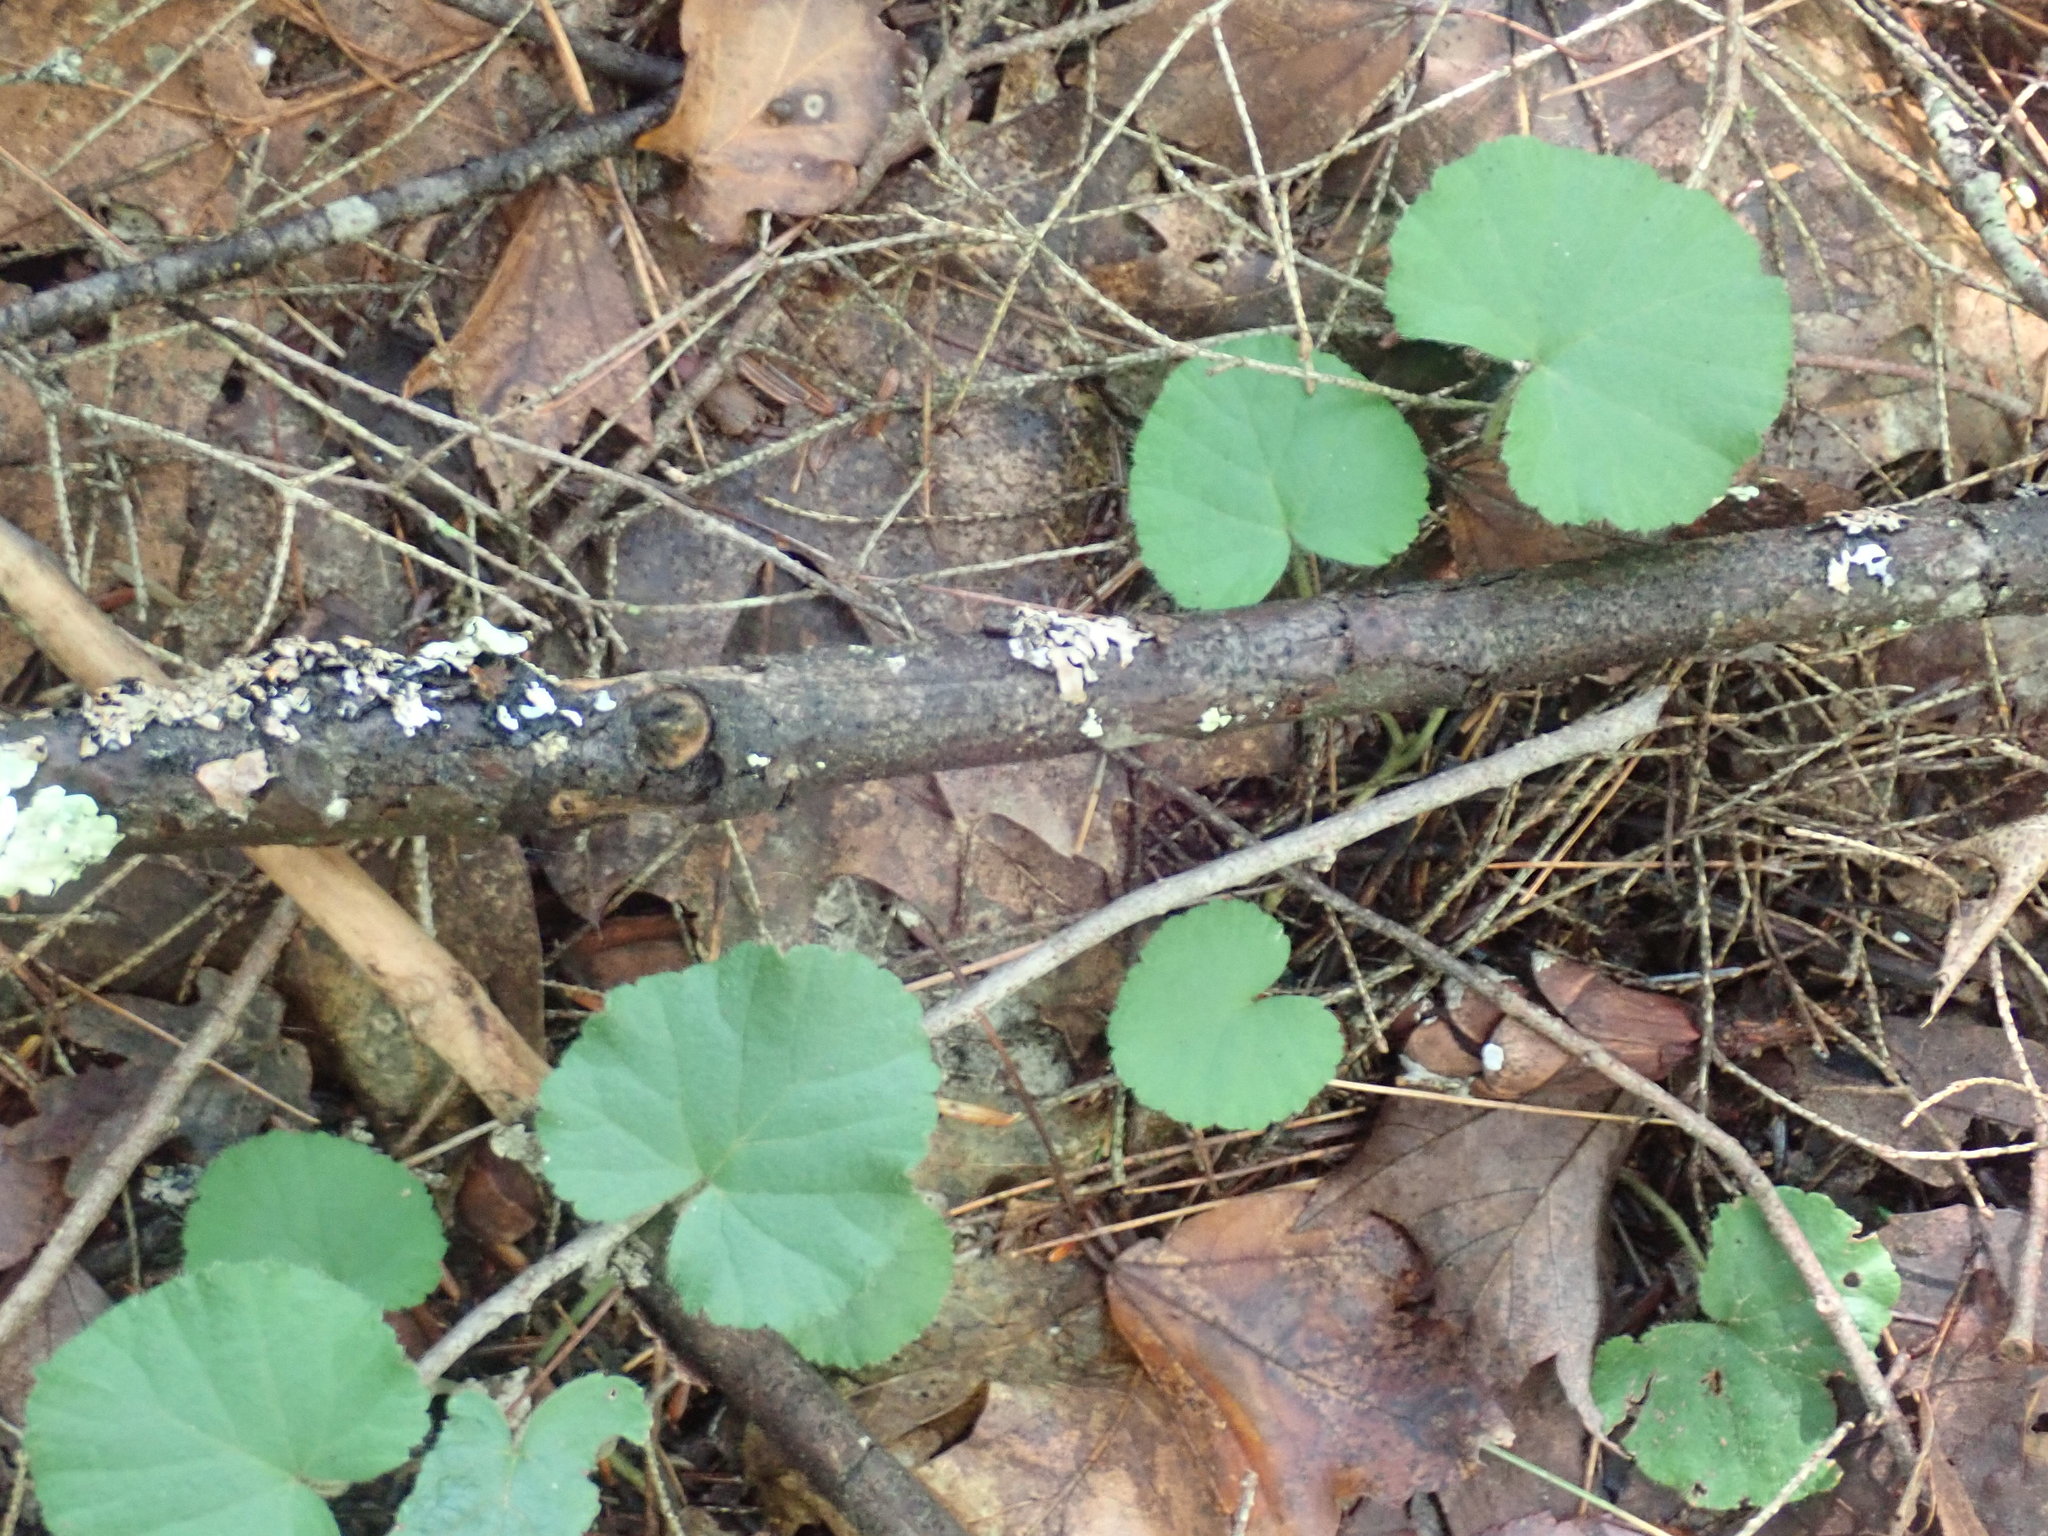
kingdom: Plantae
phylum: Tracheophyta
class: Magnoliopsida
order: Rosales
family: Rosaceae
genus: Dalibarda
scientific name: Dalibarda repens
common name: Dewdrop
